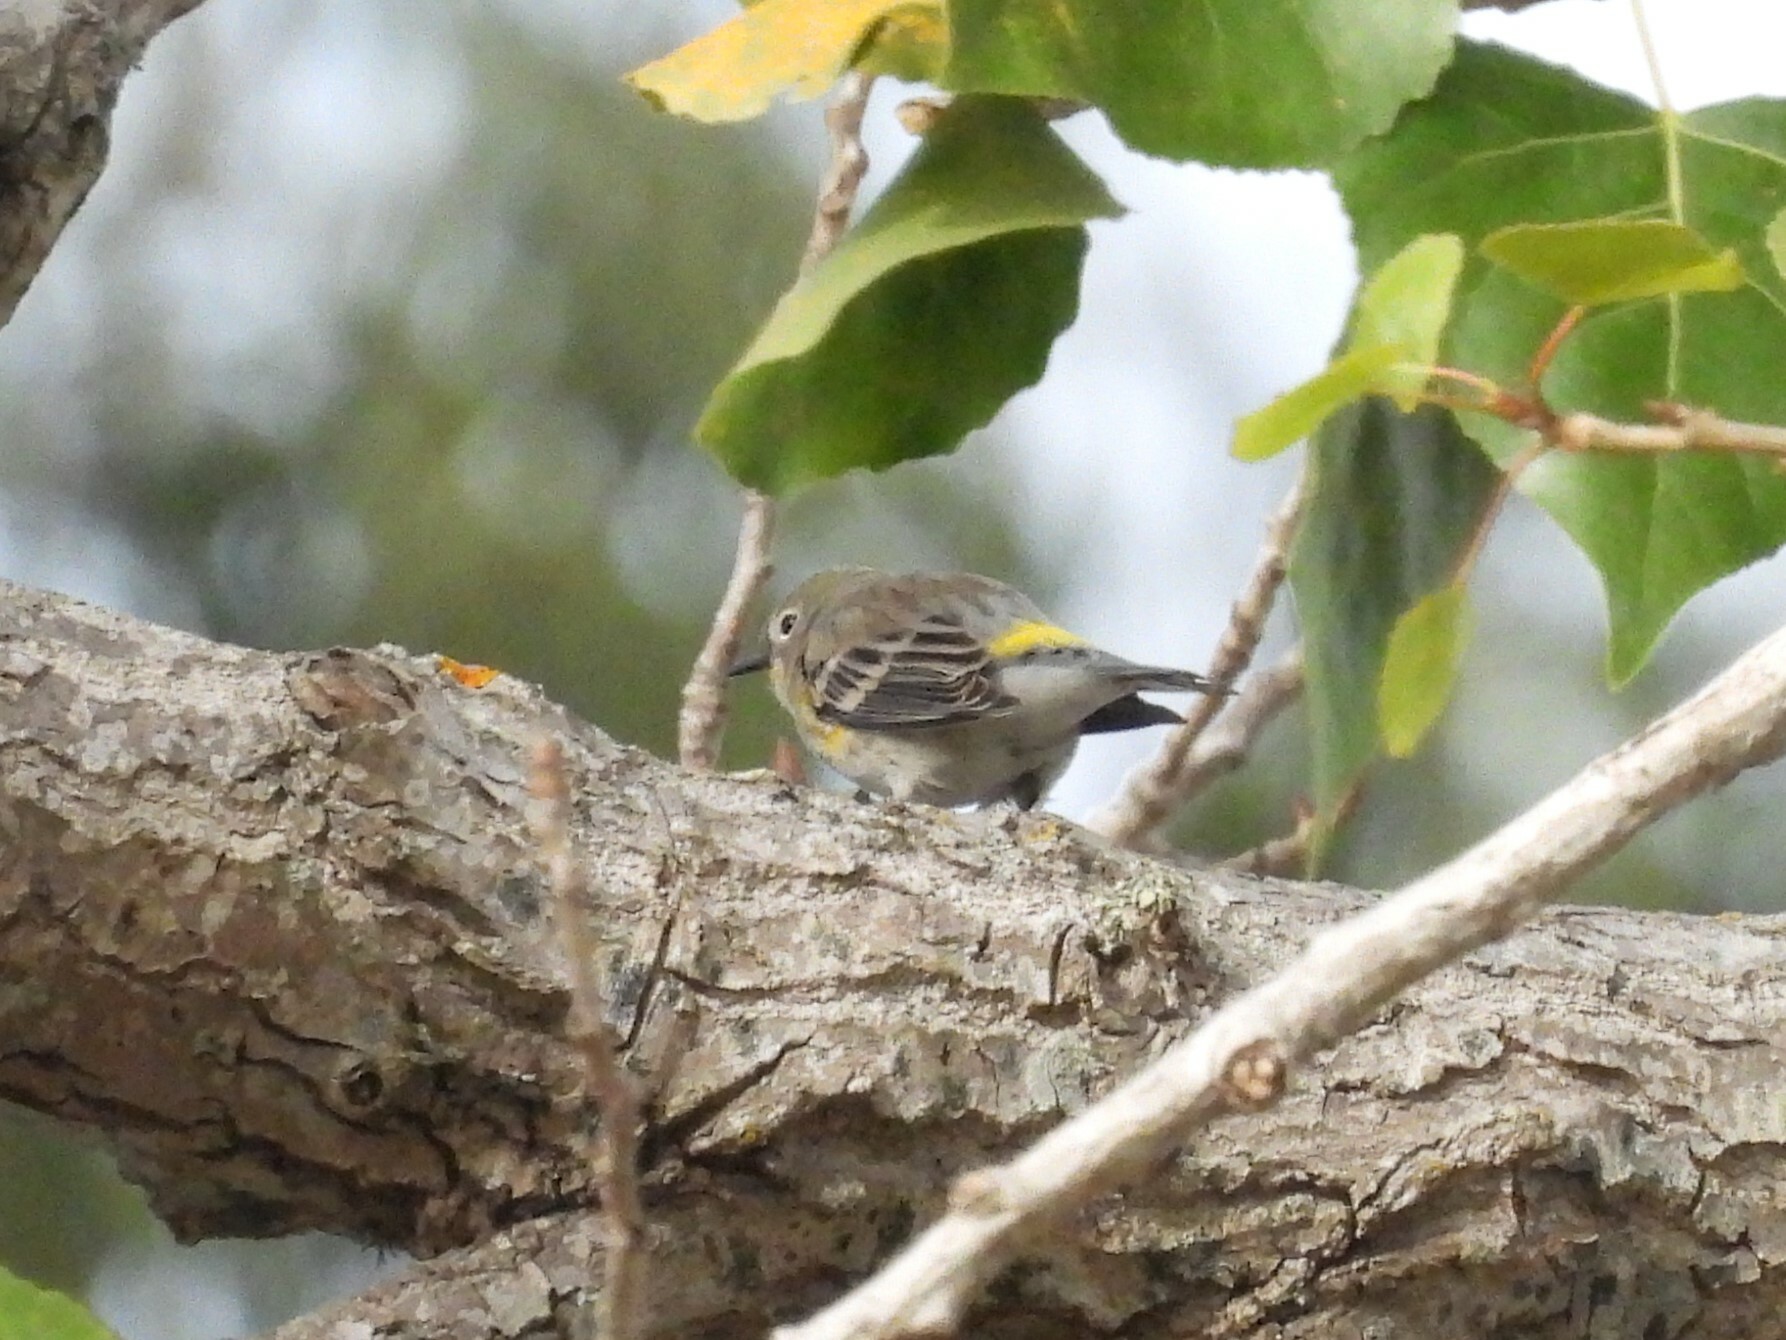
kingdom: Animalia
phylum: Chordata
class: Aves
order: Passeriformes
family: Parulidae
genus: Setophaga
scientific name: Setophaga coronata
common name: Myrtle warbler
